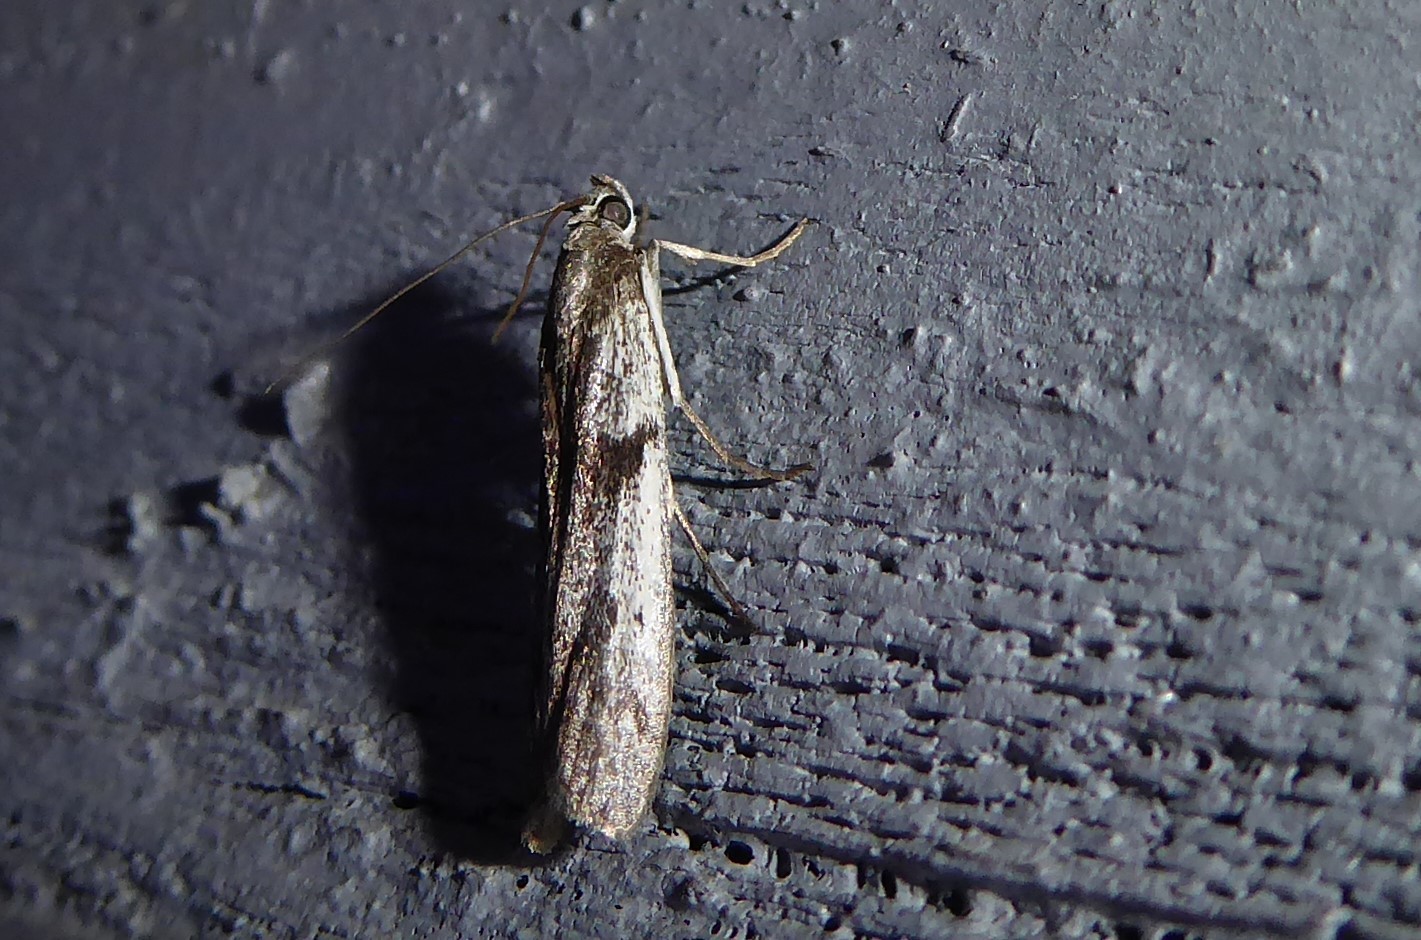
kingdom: Animalia
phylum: Arthropoda
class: Insecta
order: Lepidoptera
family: Pyralidae
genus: Patagoniodes
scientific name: Patagoniodes farinaria
